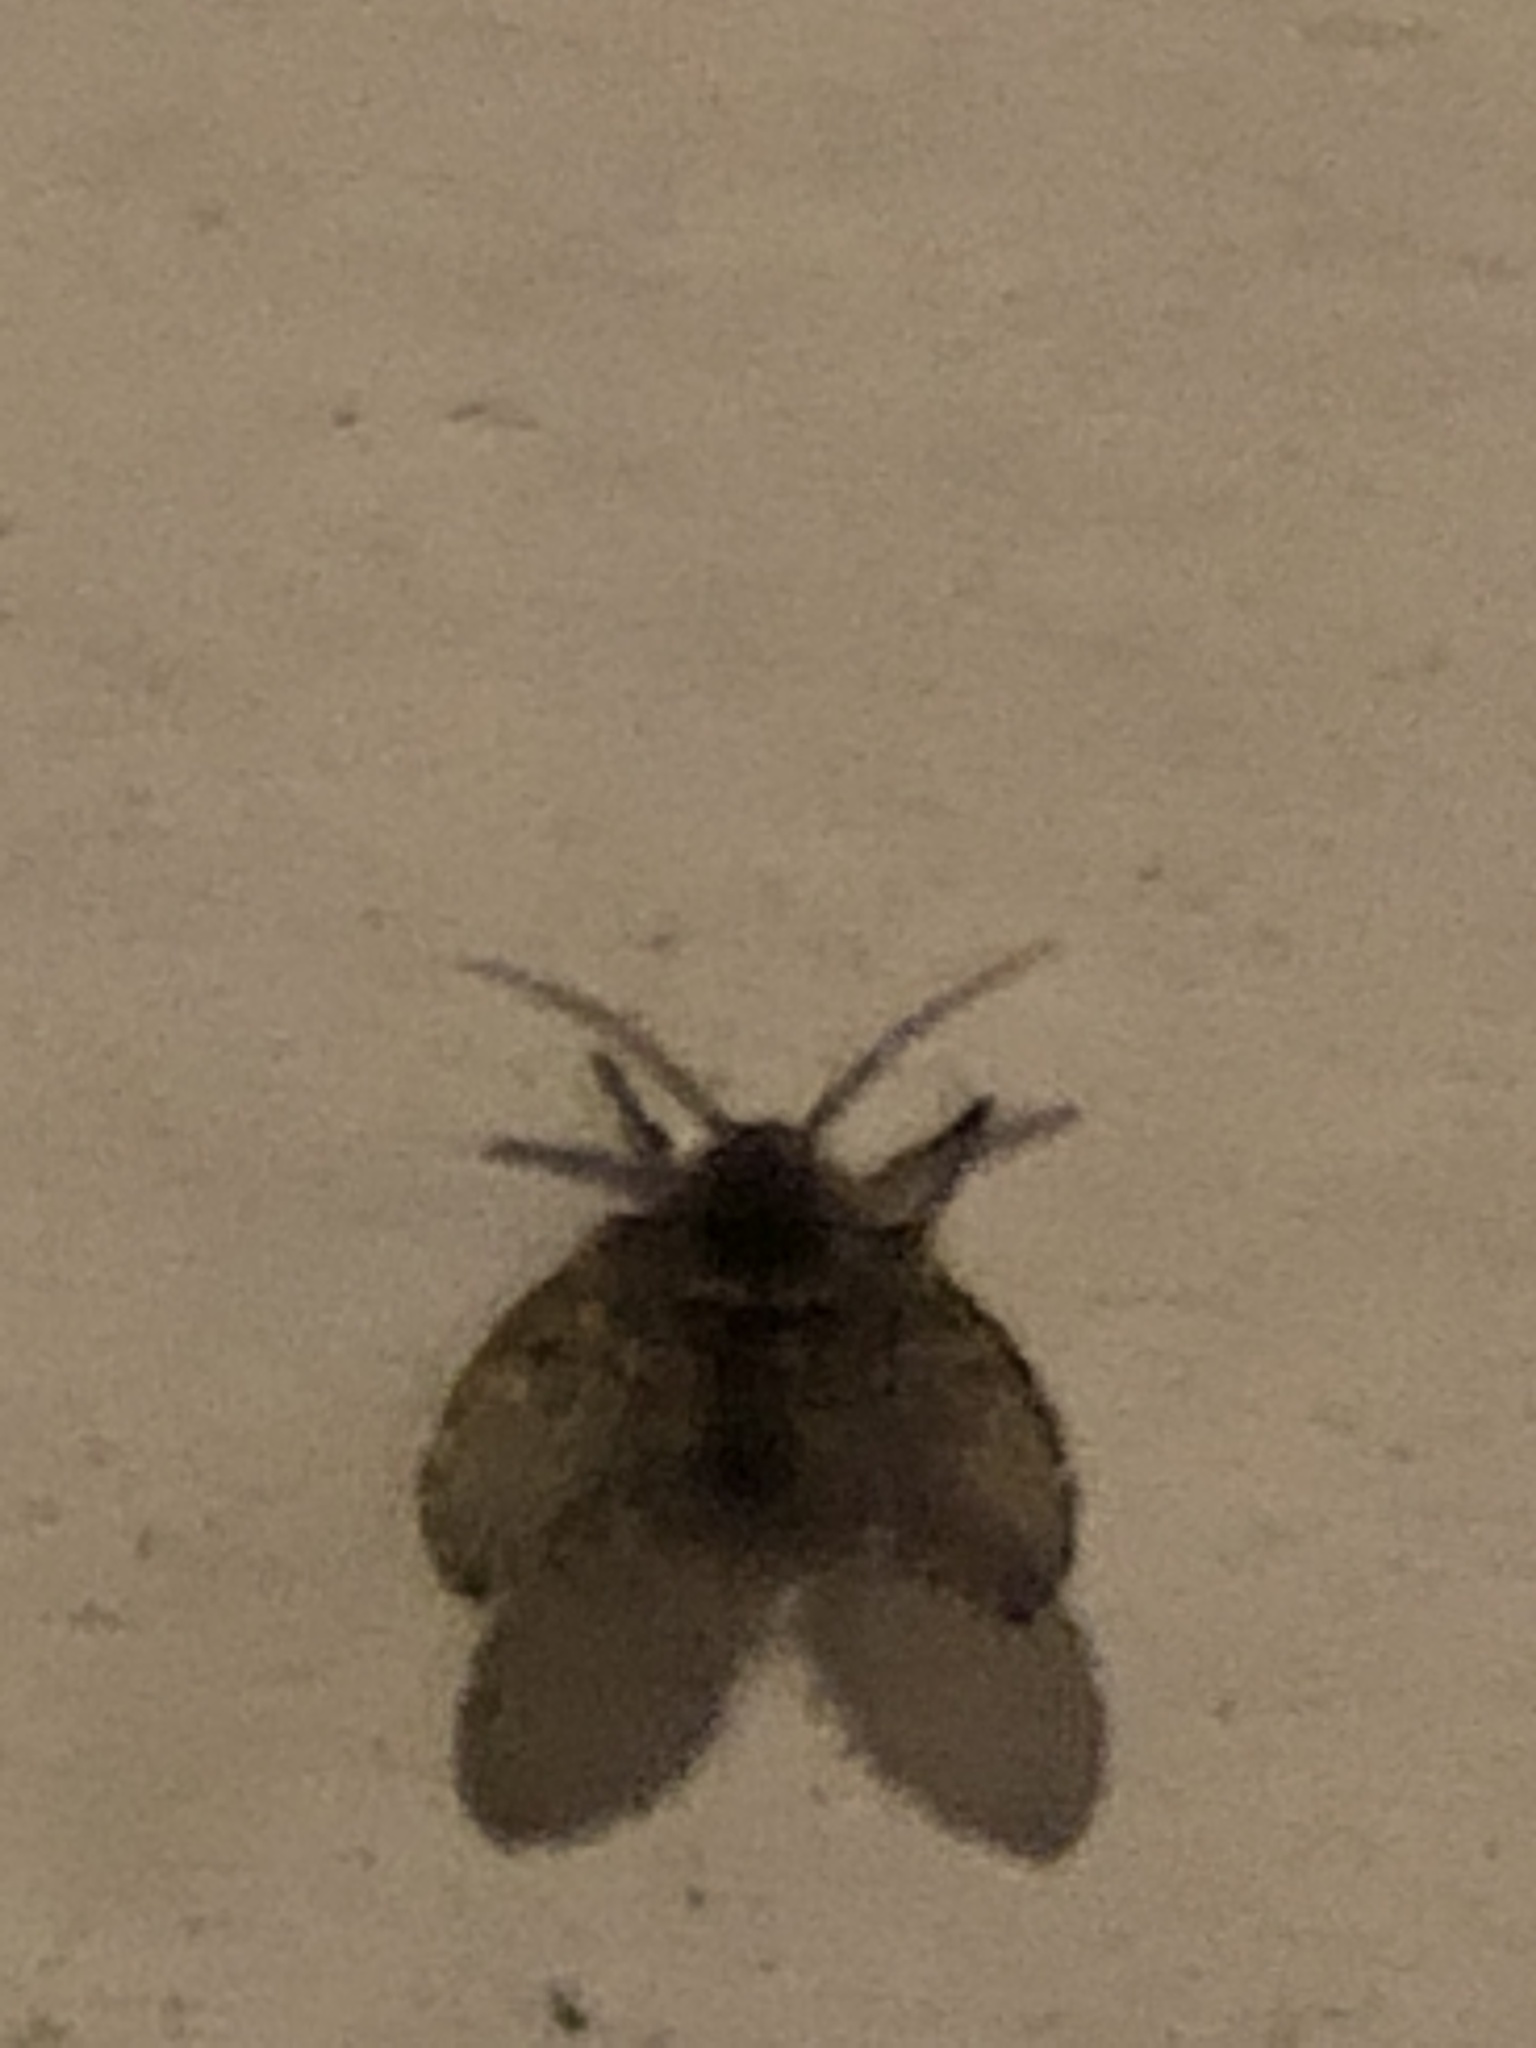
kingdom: Animalia
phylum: Arthropoda
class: Insecta
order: Diptera
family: Psychodidae
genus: Clogmia
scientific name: Clogmia albipunctatus
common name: White-spotted moth fly
